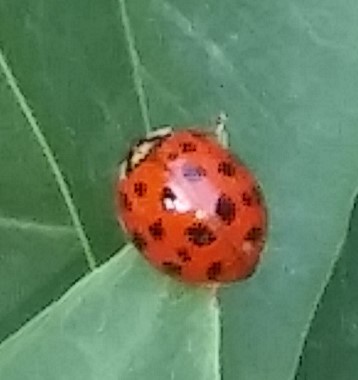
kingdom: Animalia
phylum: Arthropoda
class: Insecta
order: Coleoptera
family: Coccinellidae
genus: Harmonia
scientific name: Harmonia axyridis
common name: Harlequin ladybird
